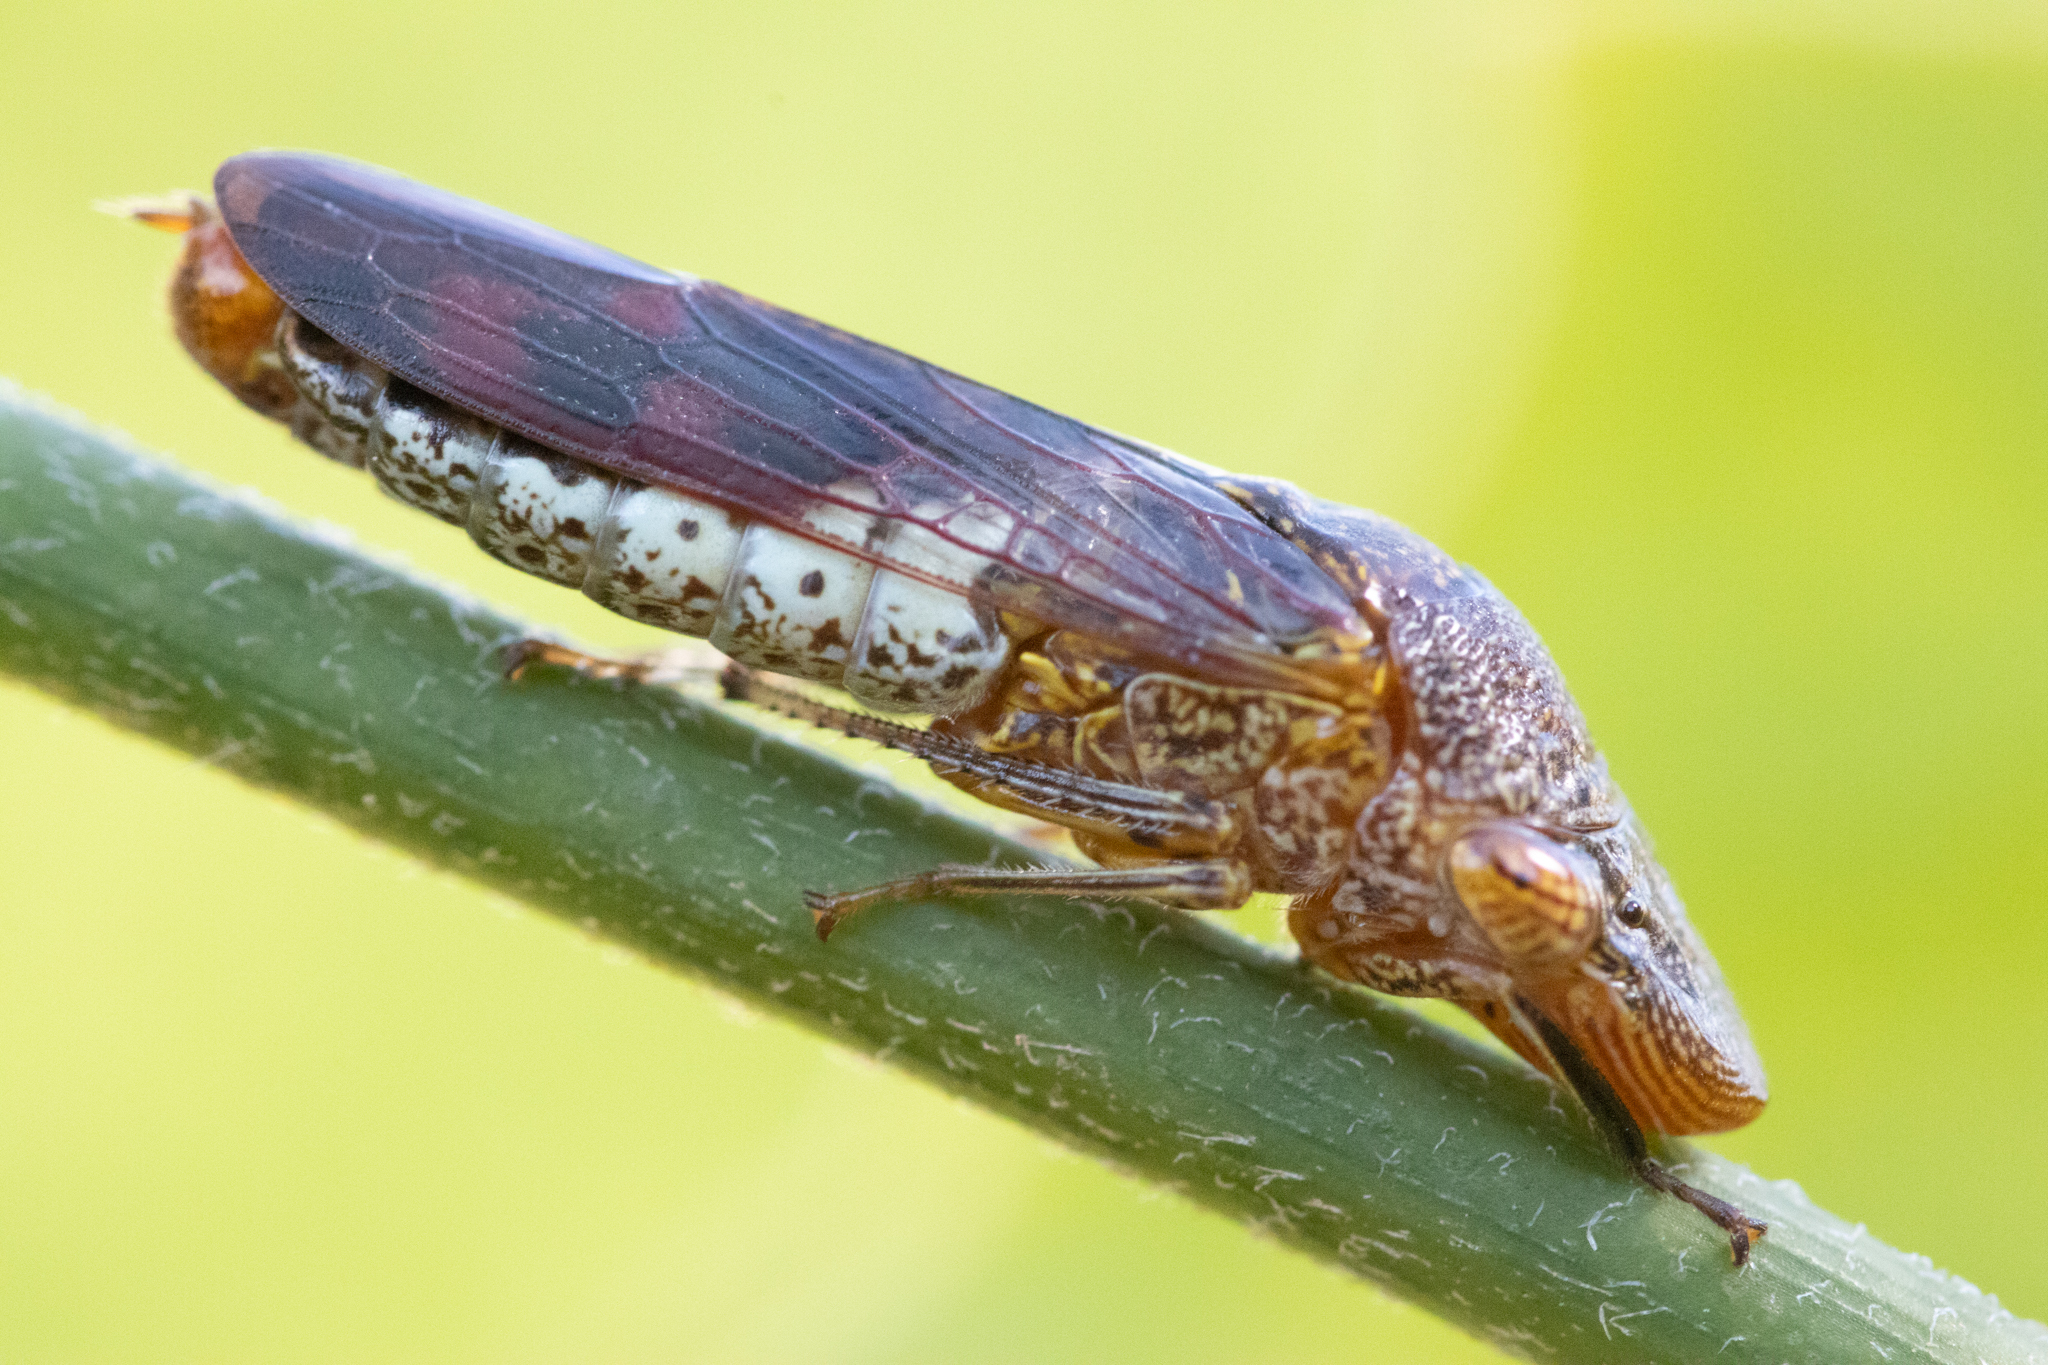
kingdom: Animalia
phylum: Arthropoda
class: Insecta
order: Hemiptera
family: Cicadellidae
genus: Homalodisca
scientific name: Homalodisca vitripennis
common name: Glassy-winged sharpshooter
